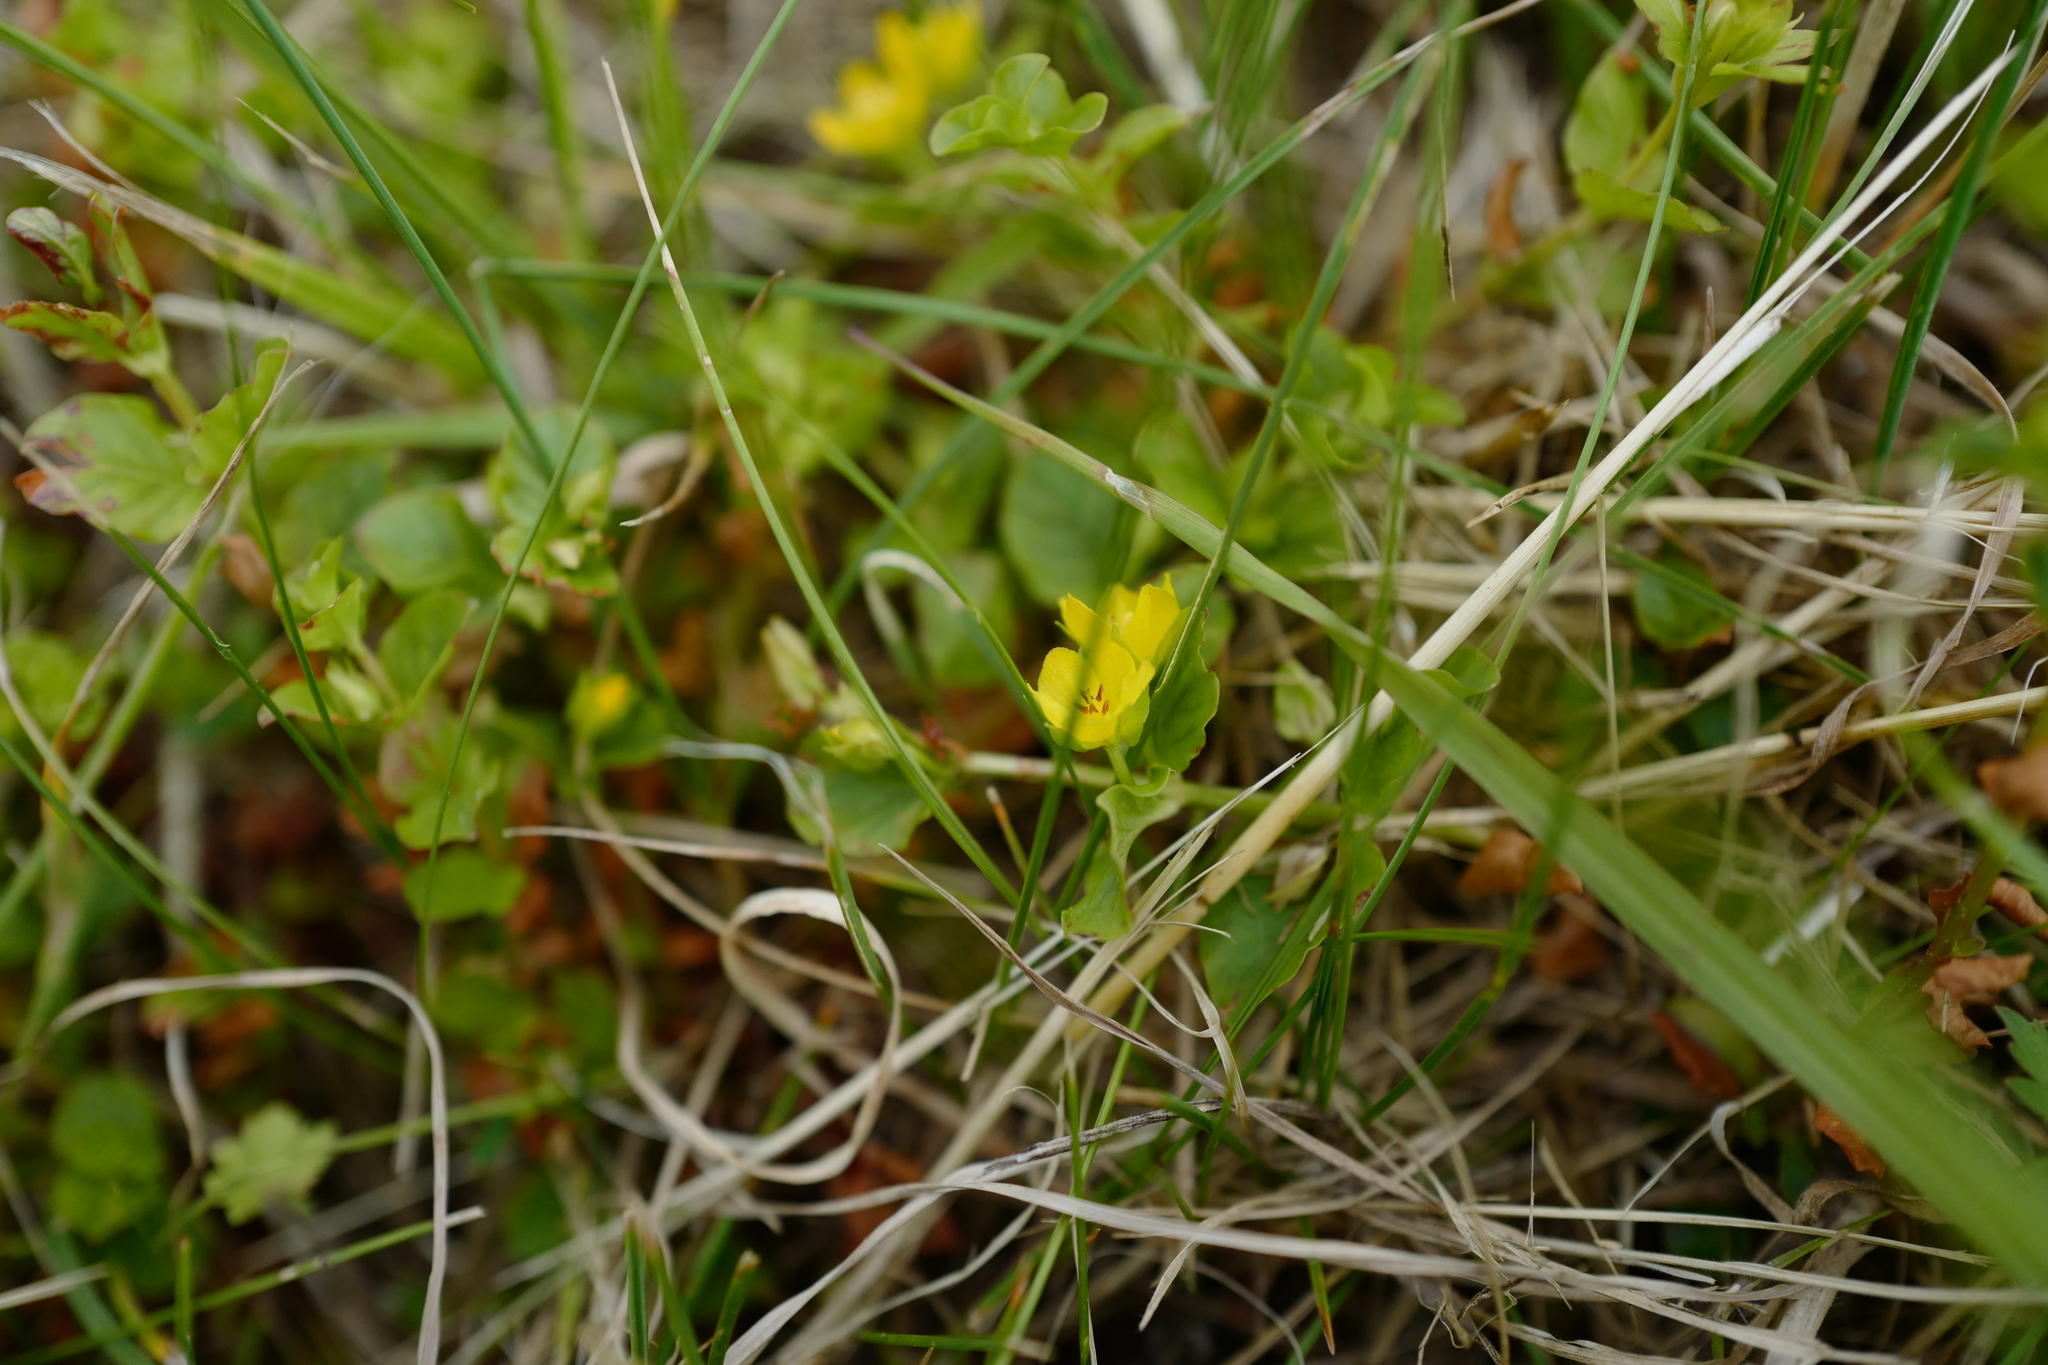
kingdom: Plantae
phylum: Tracheophyta
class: Magnoliopsida
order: Ericales
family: Primulaceae
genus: Lysimachia
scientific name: Lysimachia nummularia
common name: Moneywort
